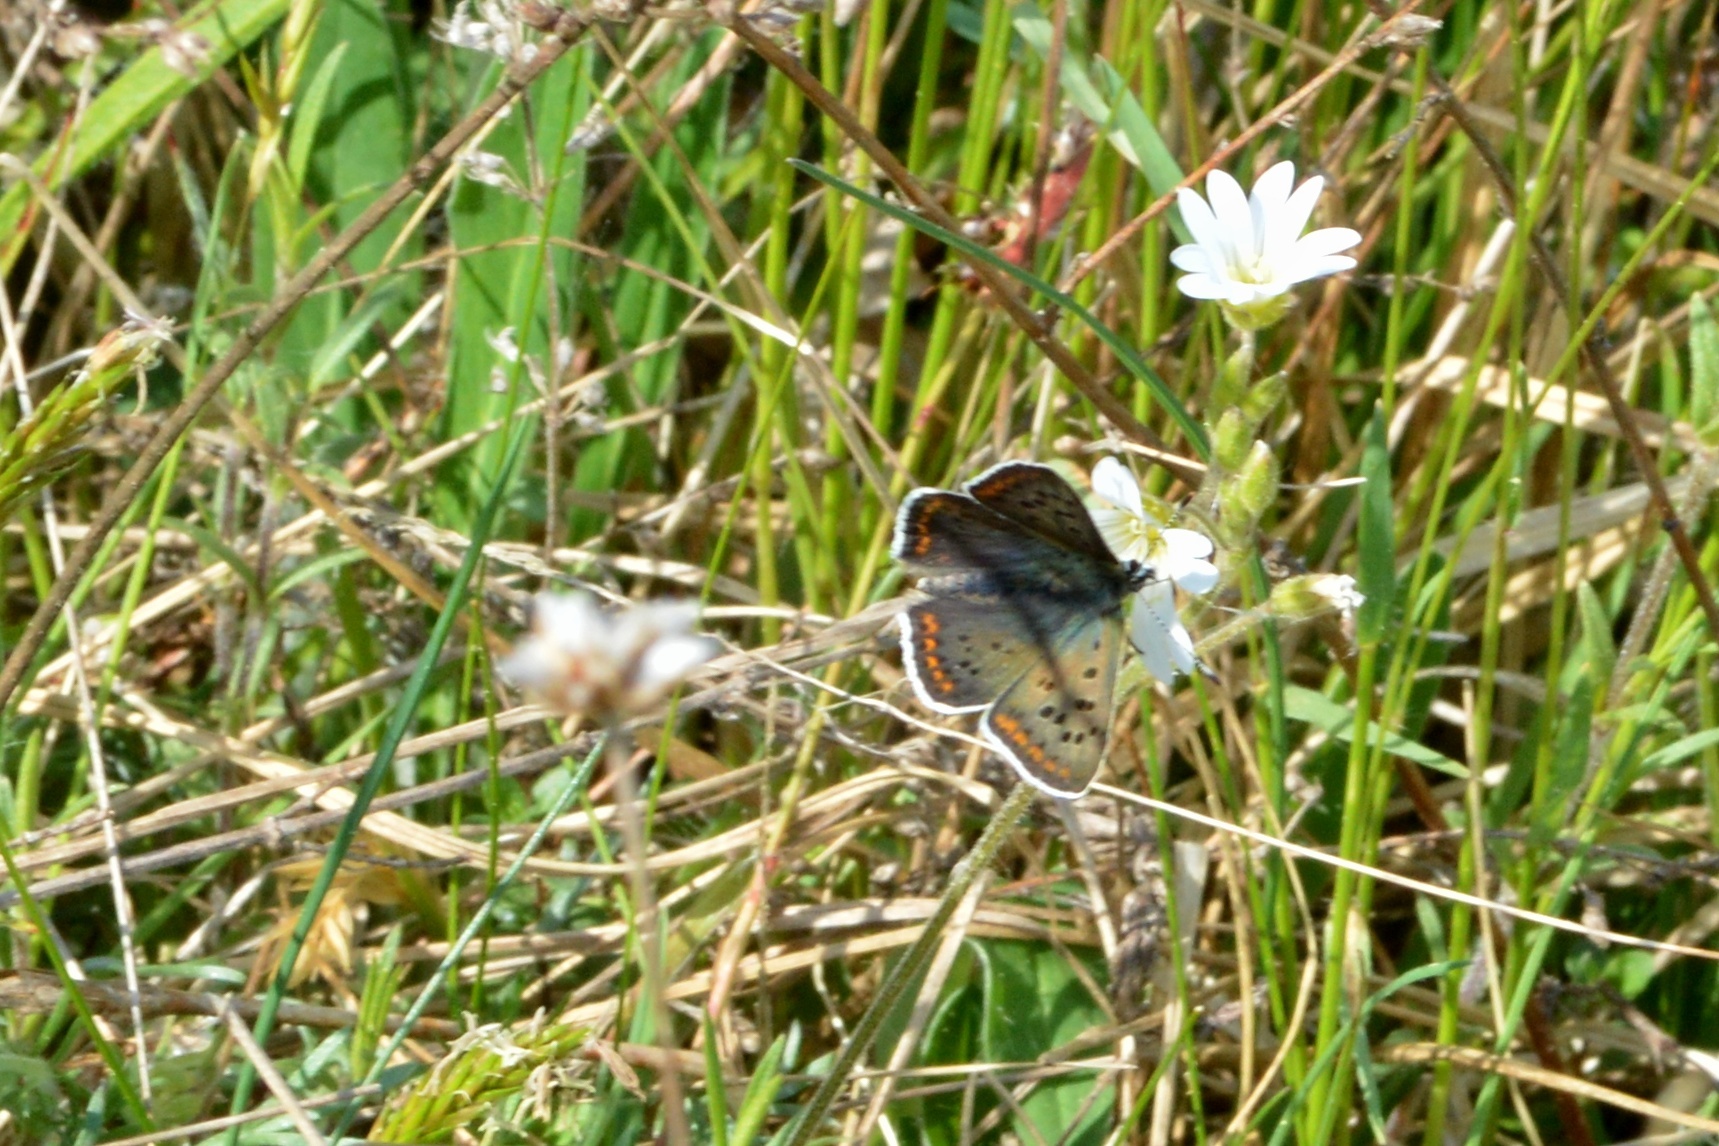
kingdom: Animalia
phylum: Arthropoda
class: Insecta
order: Lepidoptera
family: Lycaenidae
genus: Loweia
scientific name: Loweia tityrus
